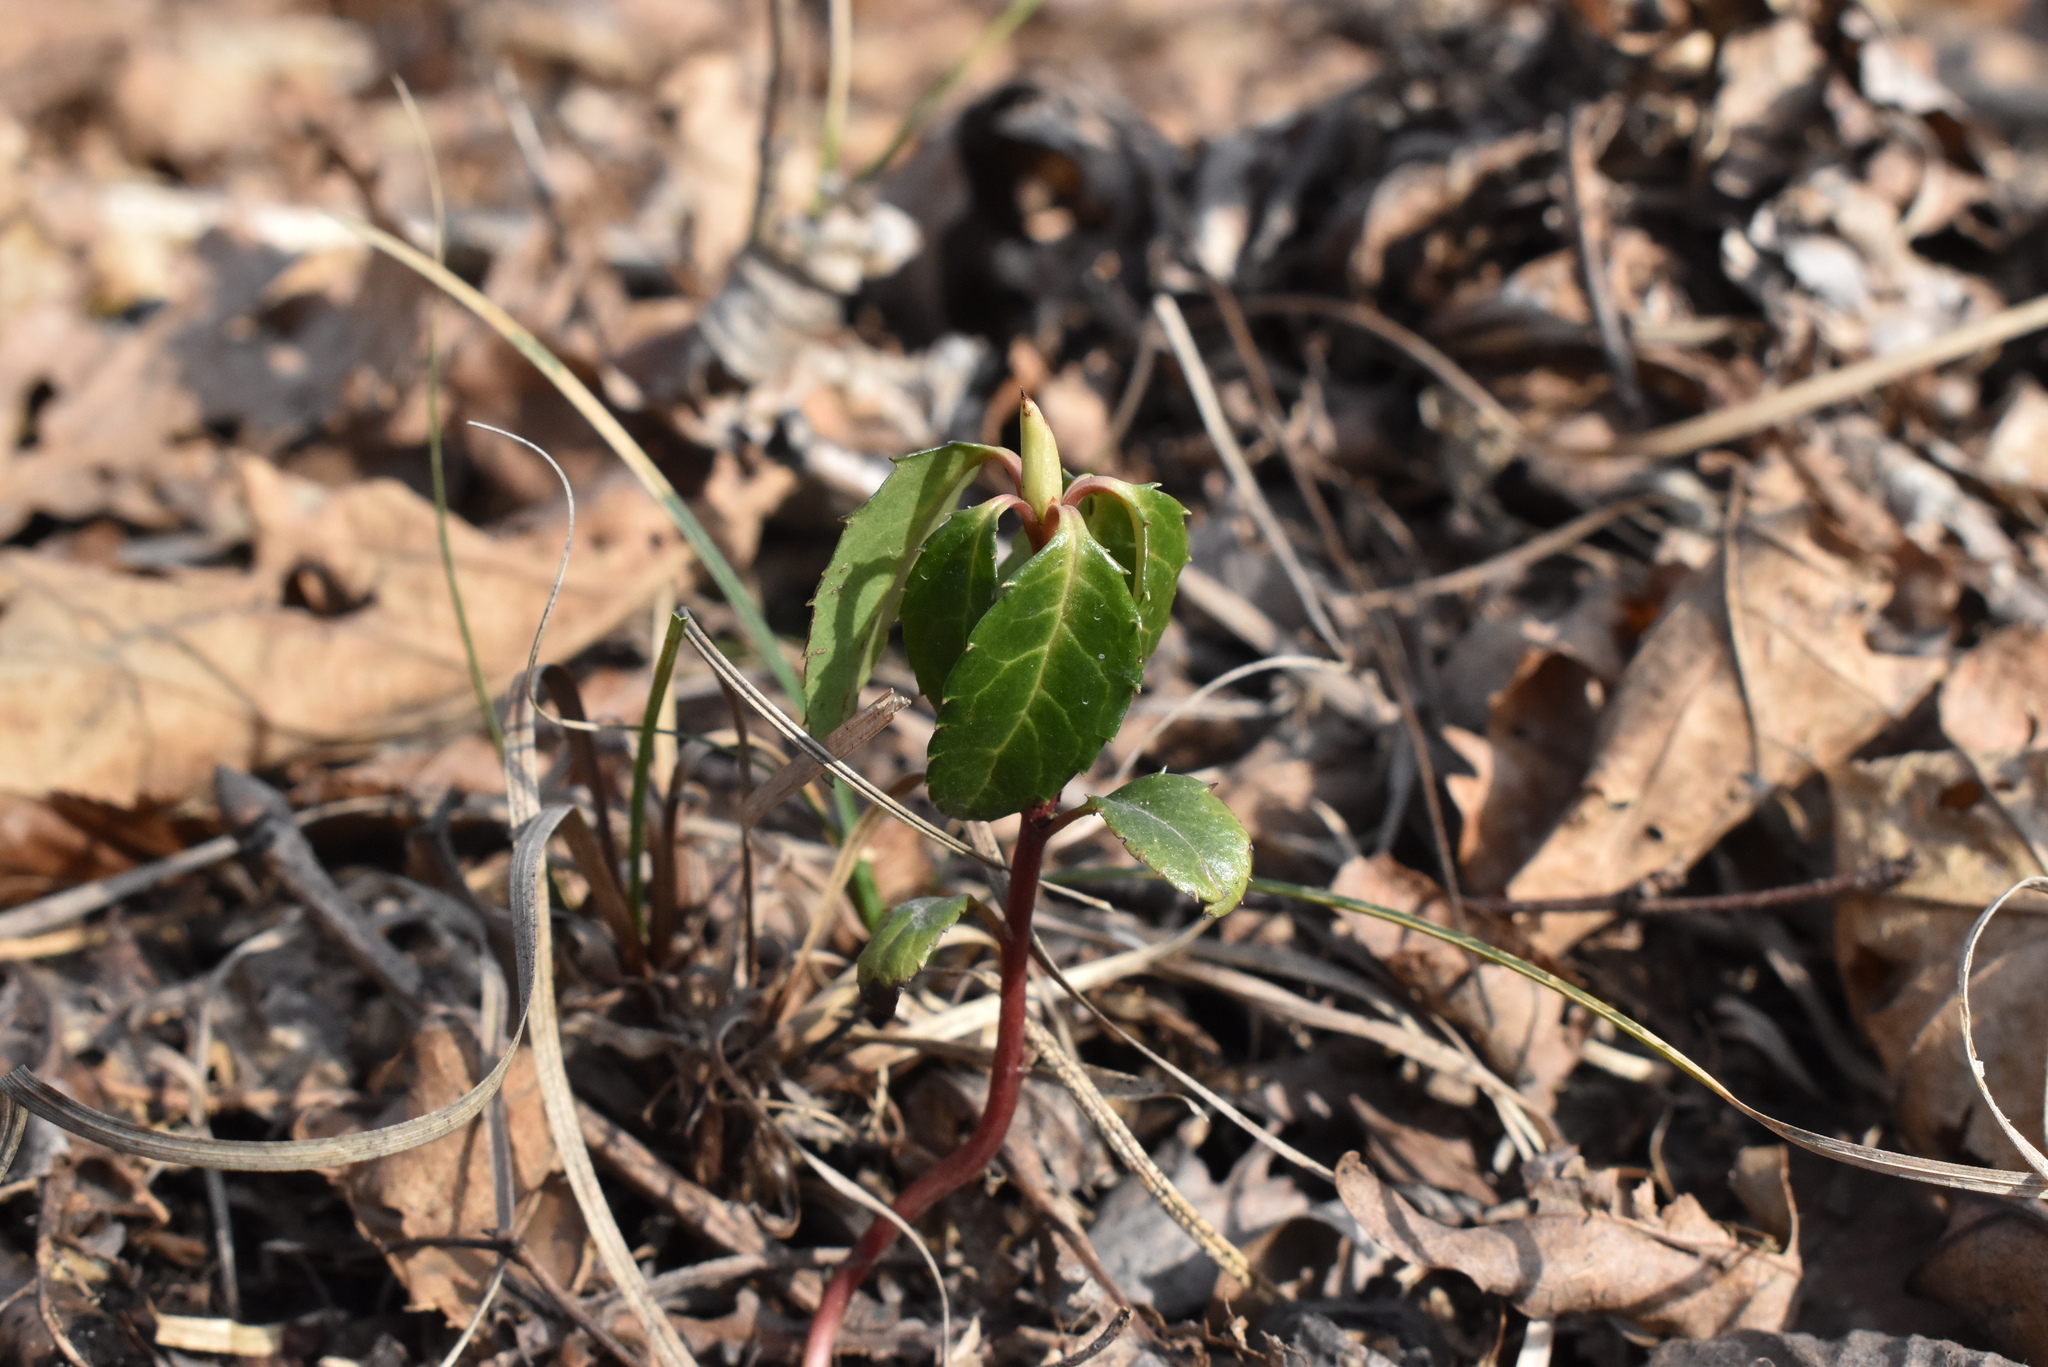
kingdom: Plantae
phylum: Tracheophyta
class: Magnoliopsida
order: Ericales
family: Ericaceae
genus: Chimaphila
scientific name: Chimaphila japonica
